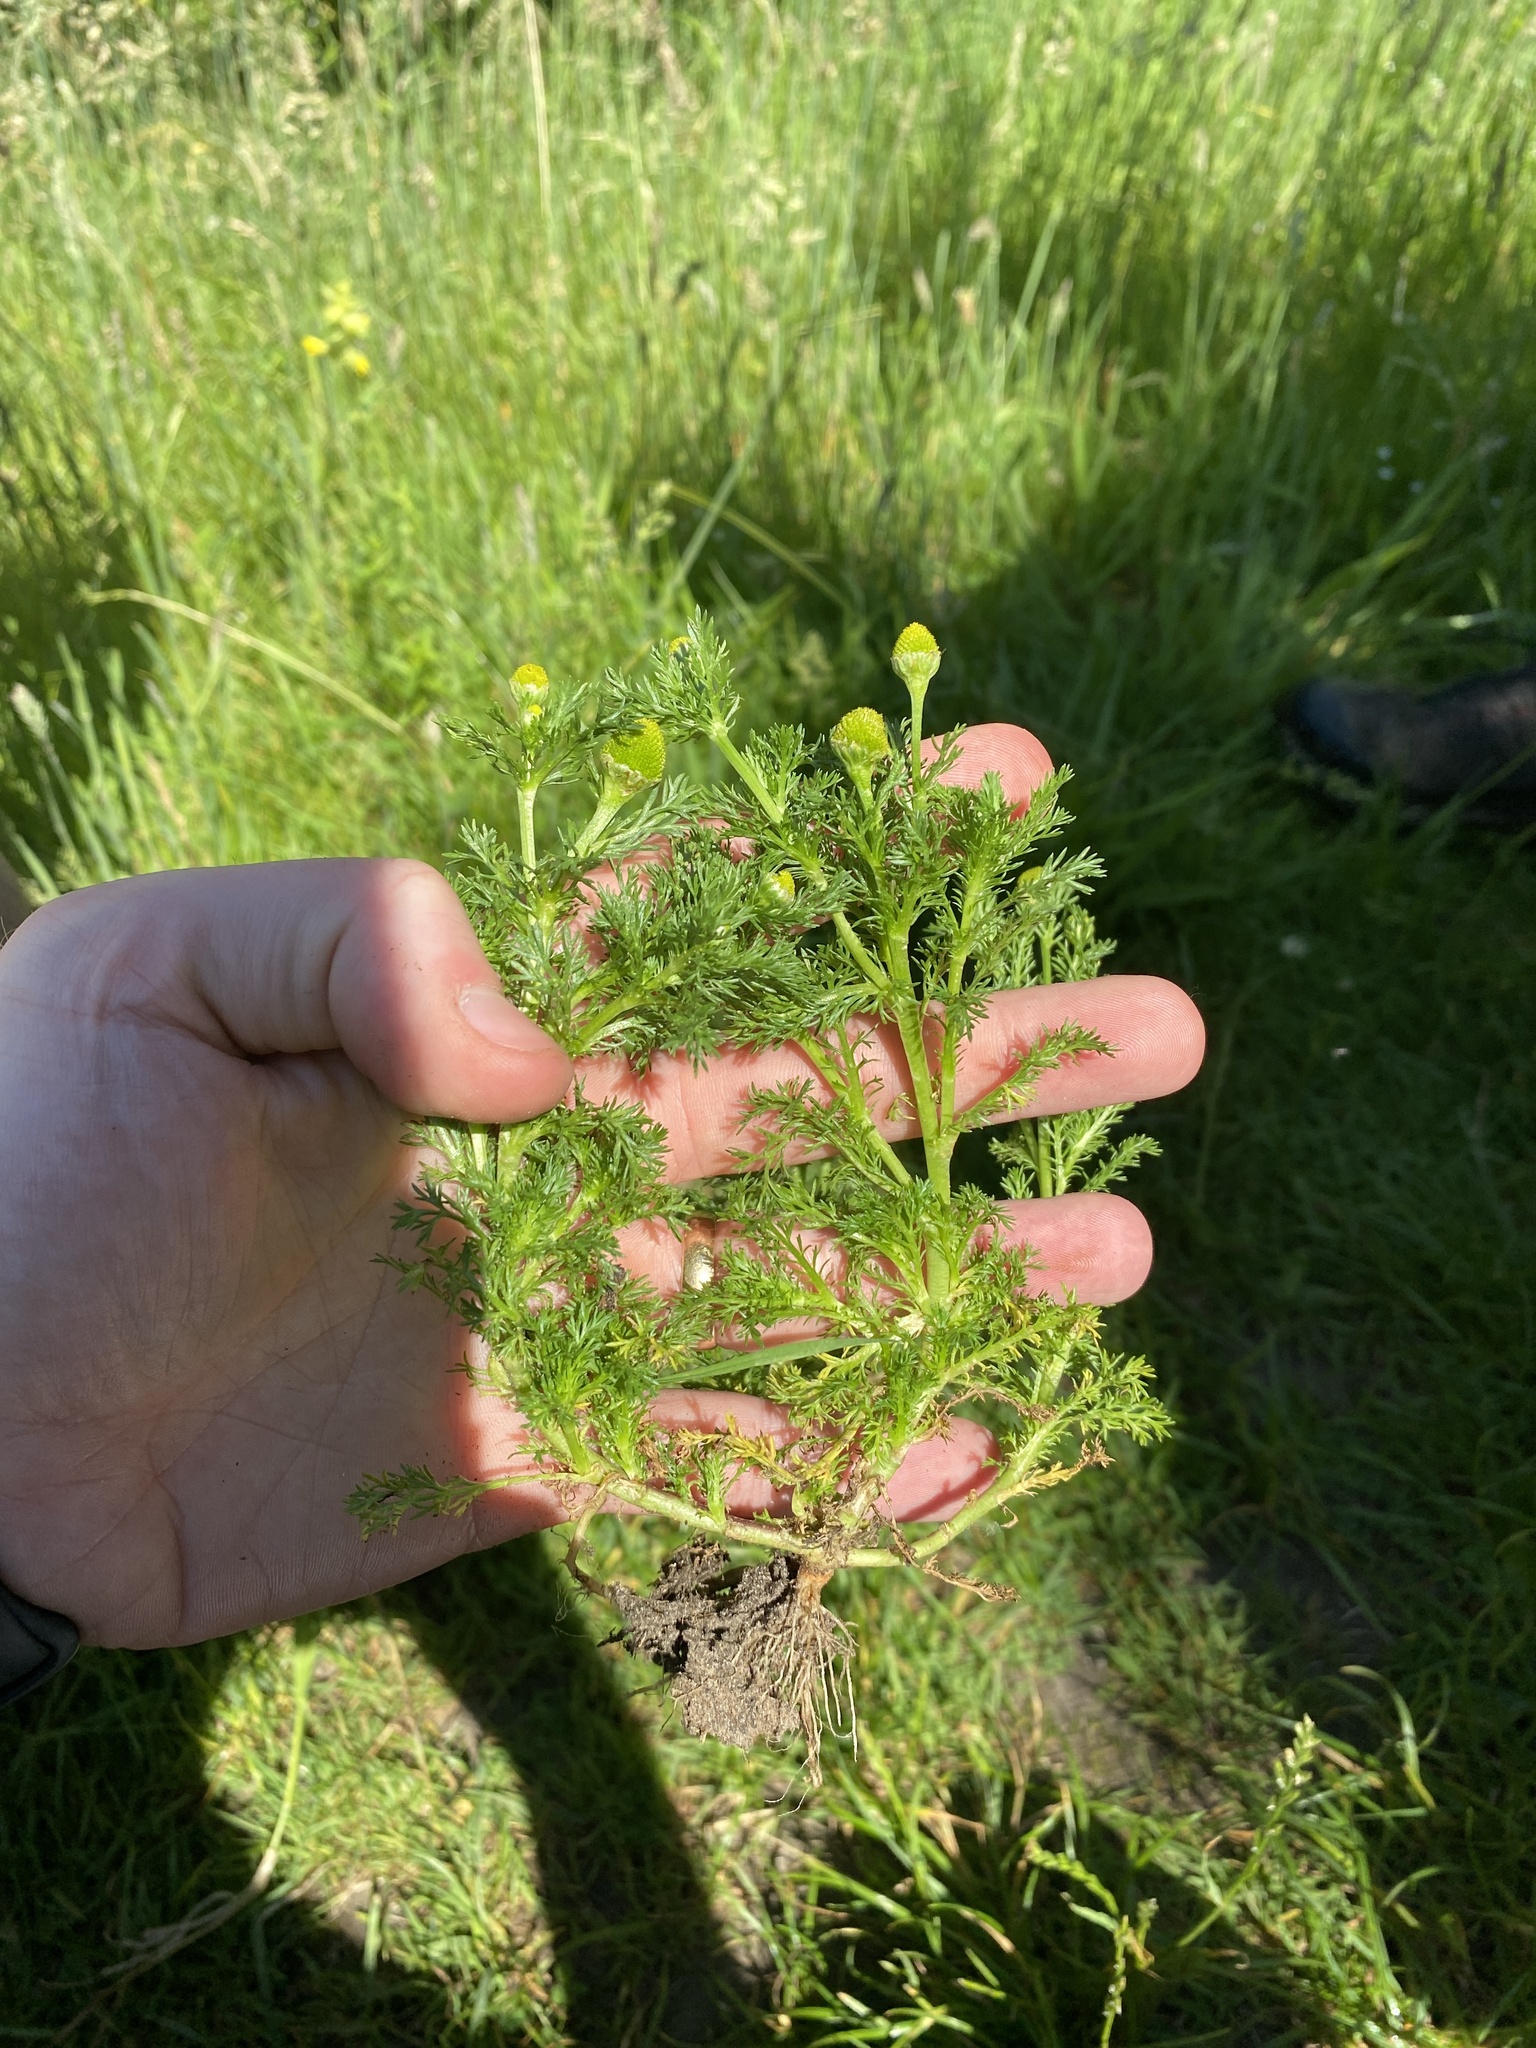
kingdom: Plantae
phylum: Tracheophyta
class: Magnoliopsida
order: Asterales
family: Asteraceae
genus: Matricaria
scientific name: Matricaria discoidea
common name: Disc mayweed
